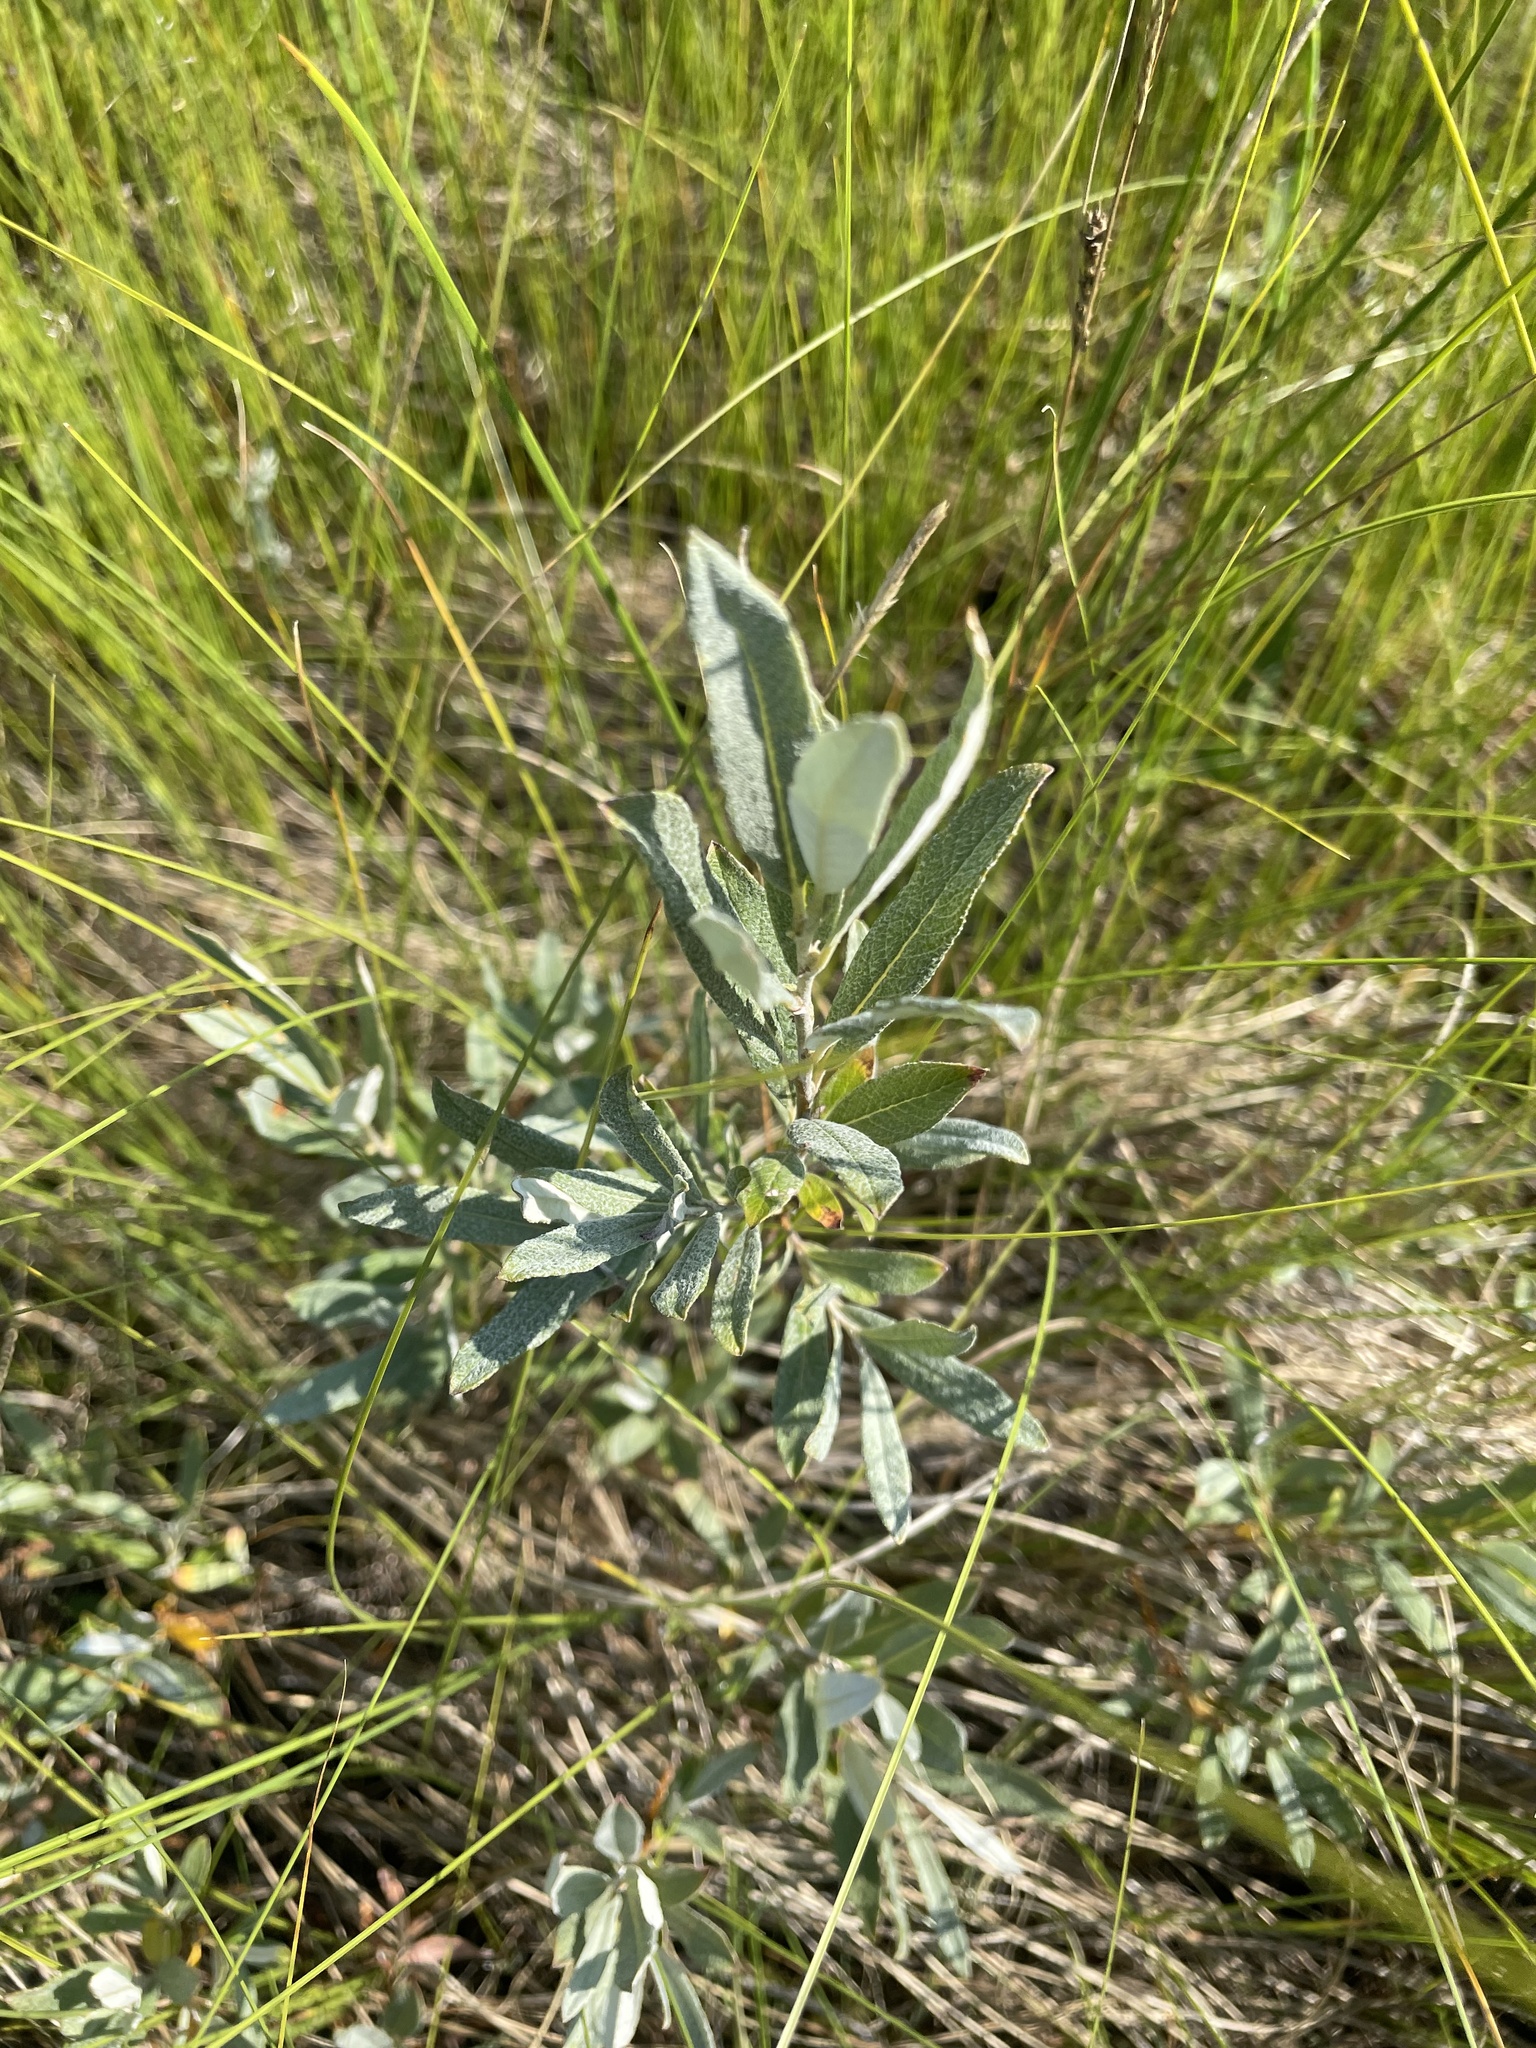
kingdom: Plantae
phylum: Tracheophyta
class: Magnoliopsida
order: Malpighiales
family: Salicaceae
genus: Salix
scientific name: Salix candida
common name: Hoary willow
